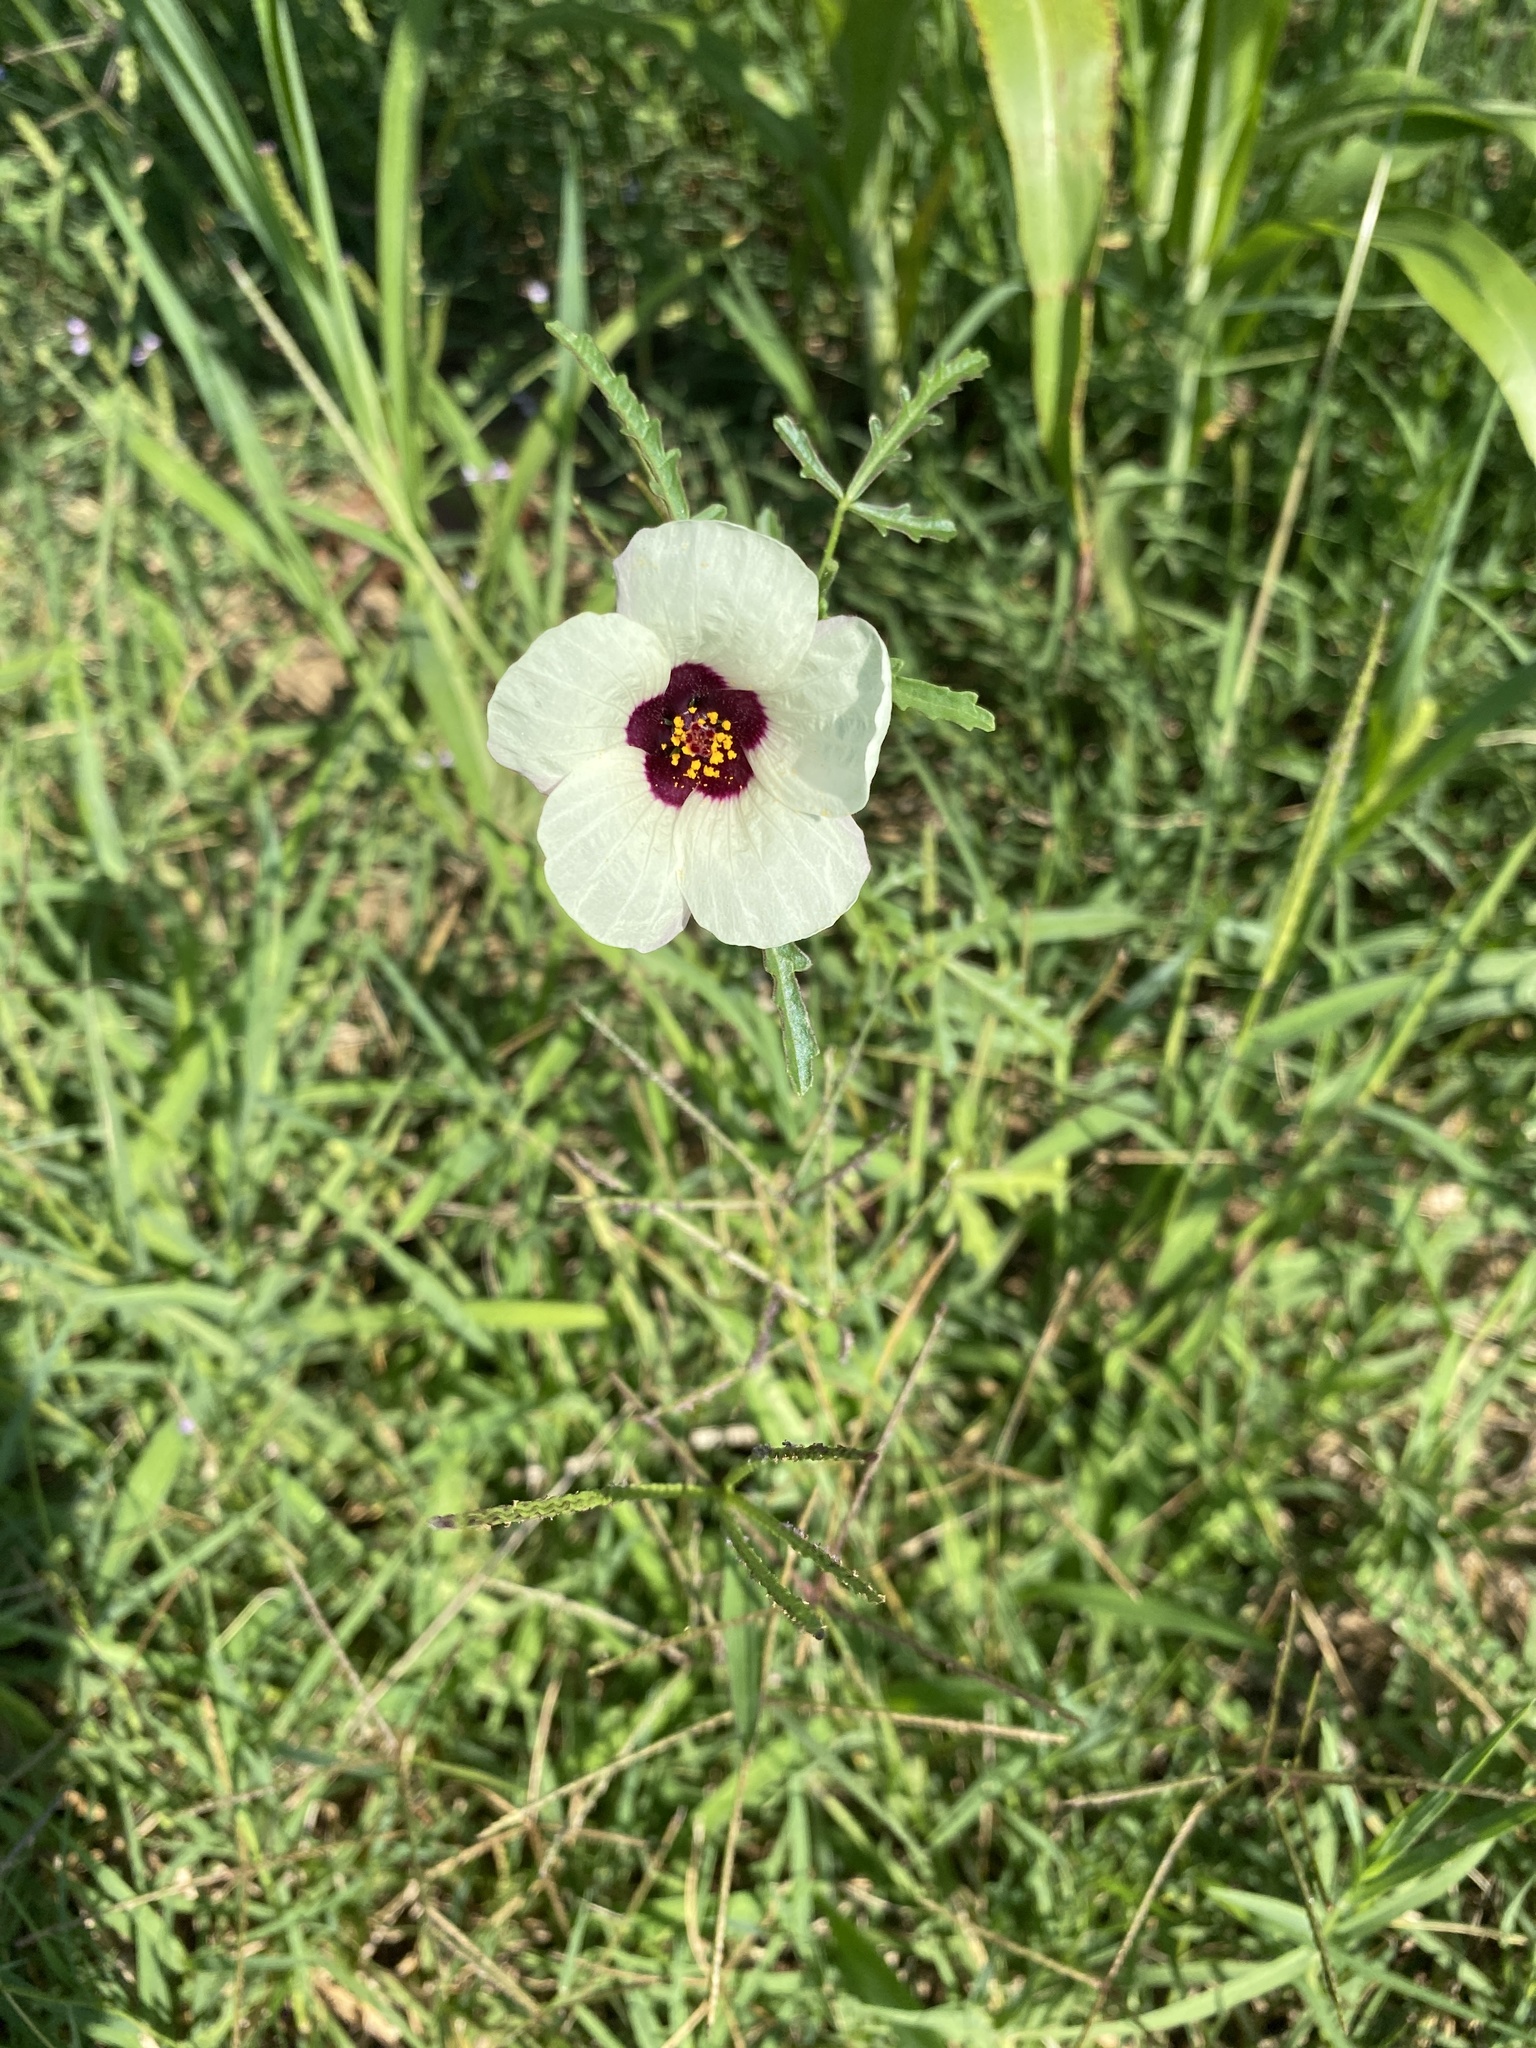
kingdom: Plantae
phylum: Tracheophyta
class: Magnoliopsida
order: Malvales
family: Malvaceae
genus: Hibiscus
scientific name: Hibiscus trionum
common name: Bladder ketmia
